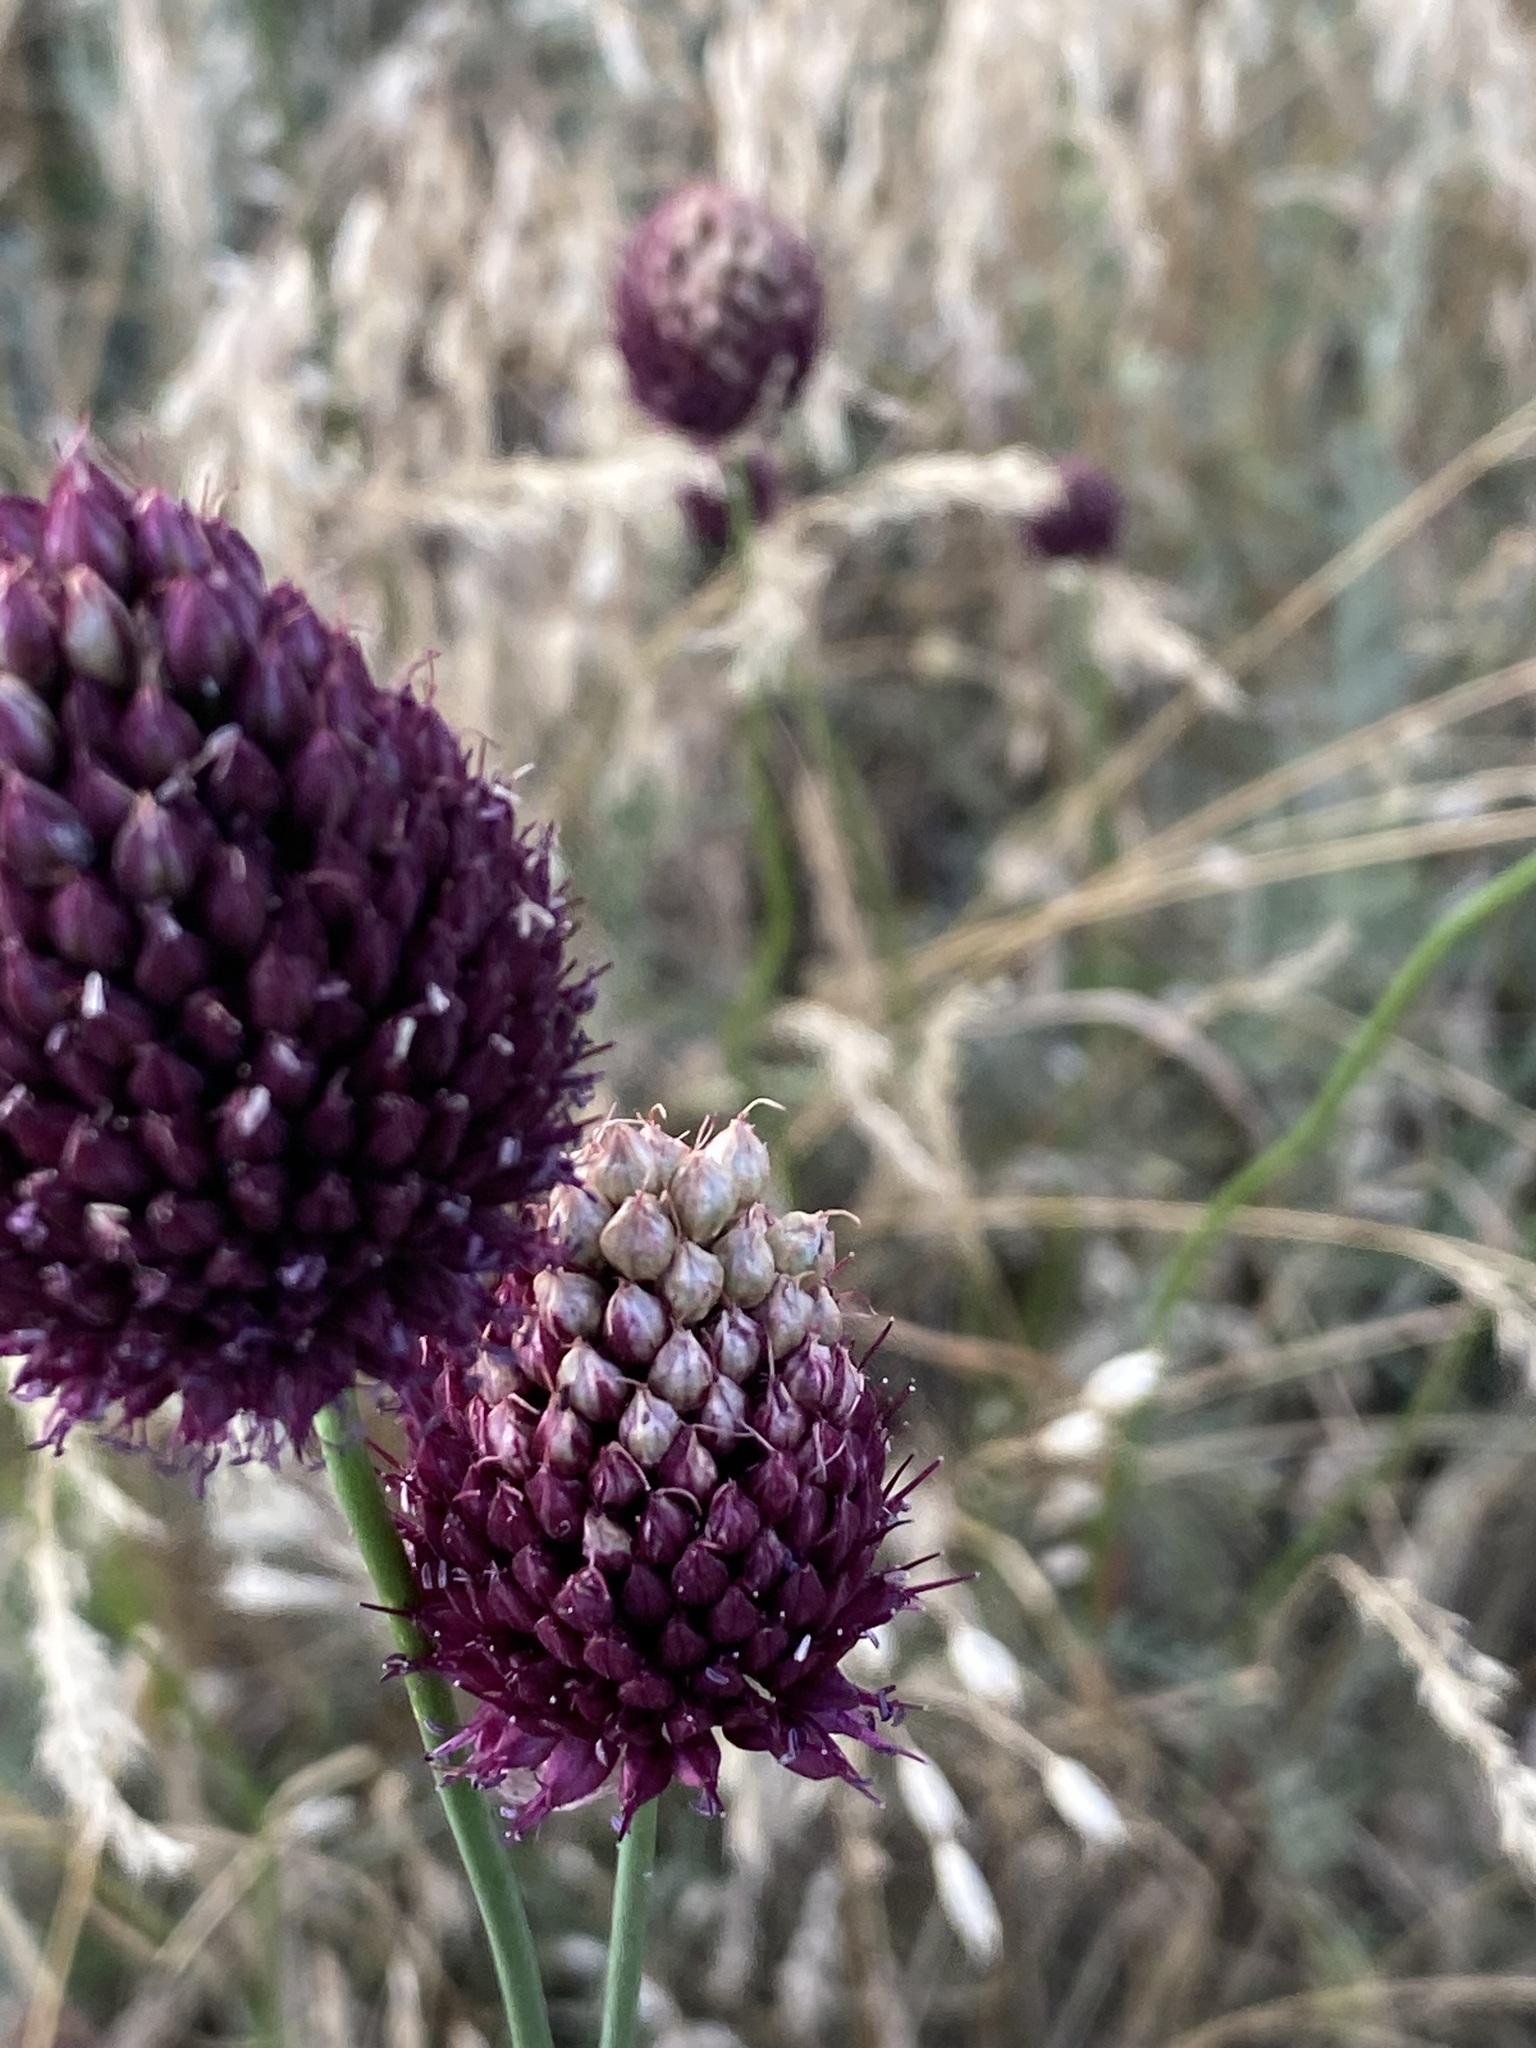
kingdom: Plantae
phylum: Tracheophyta
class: Liliopsida
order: Asparagales
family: Amaryllidaceae
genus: Allium
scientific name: Allium sphaerocephalon
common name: Round-headed leek
